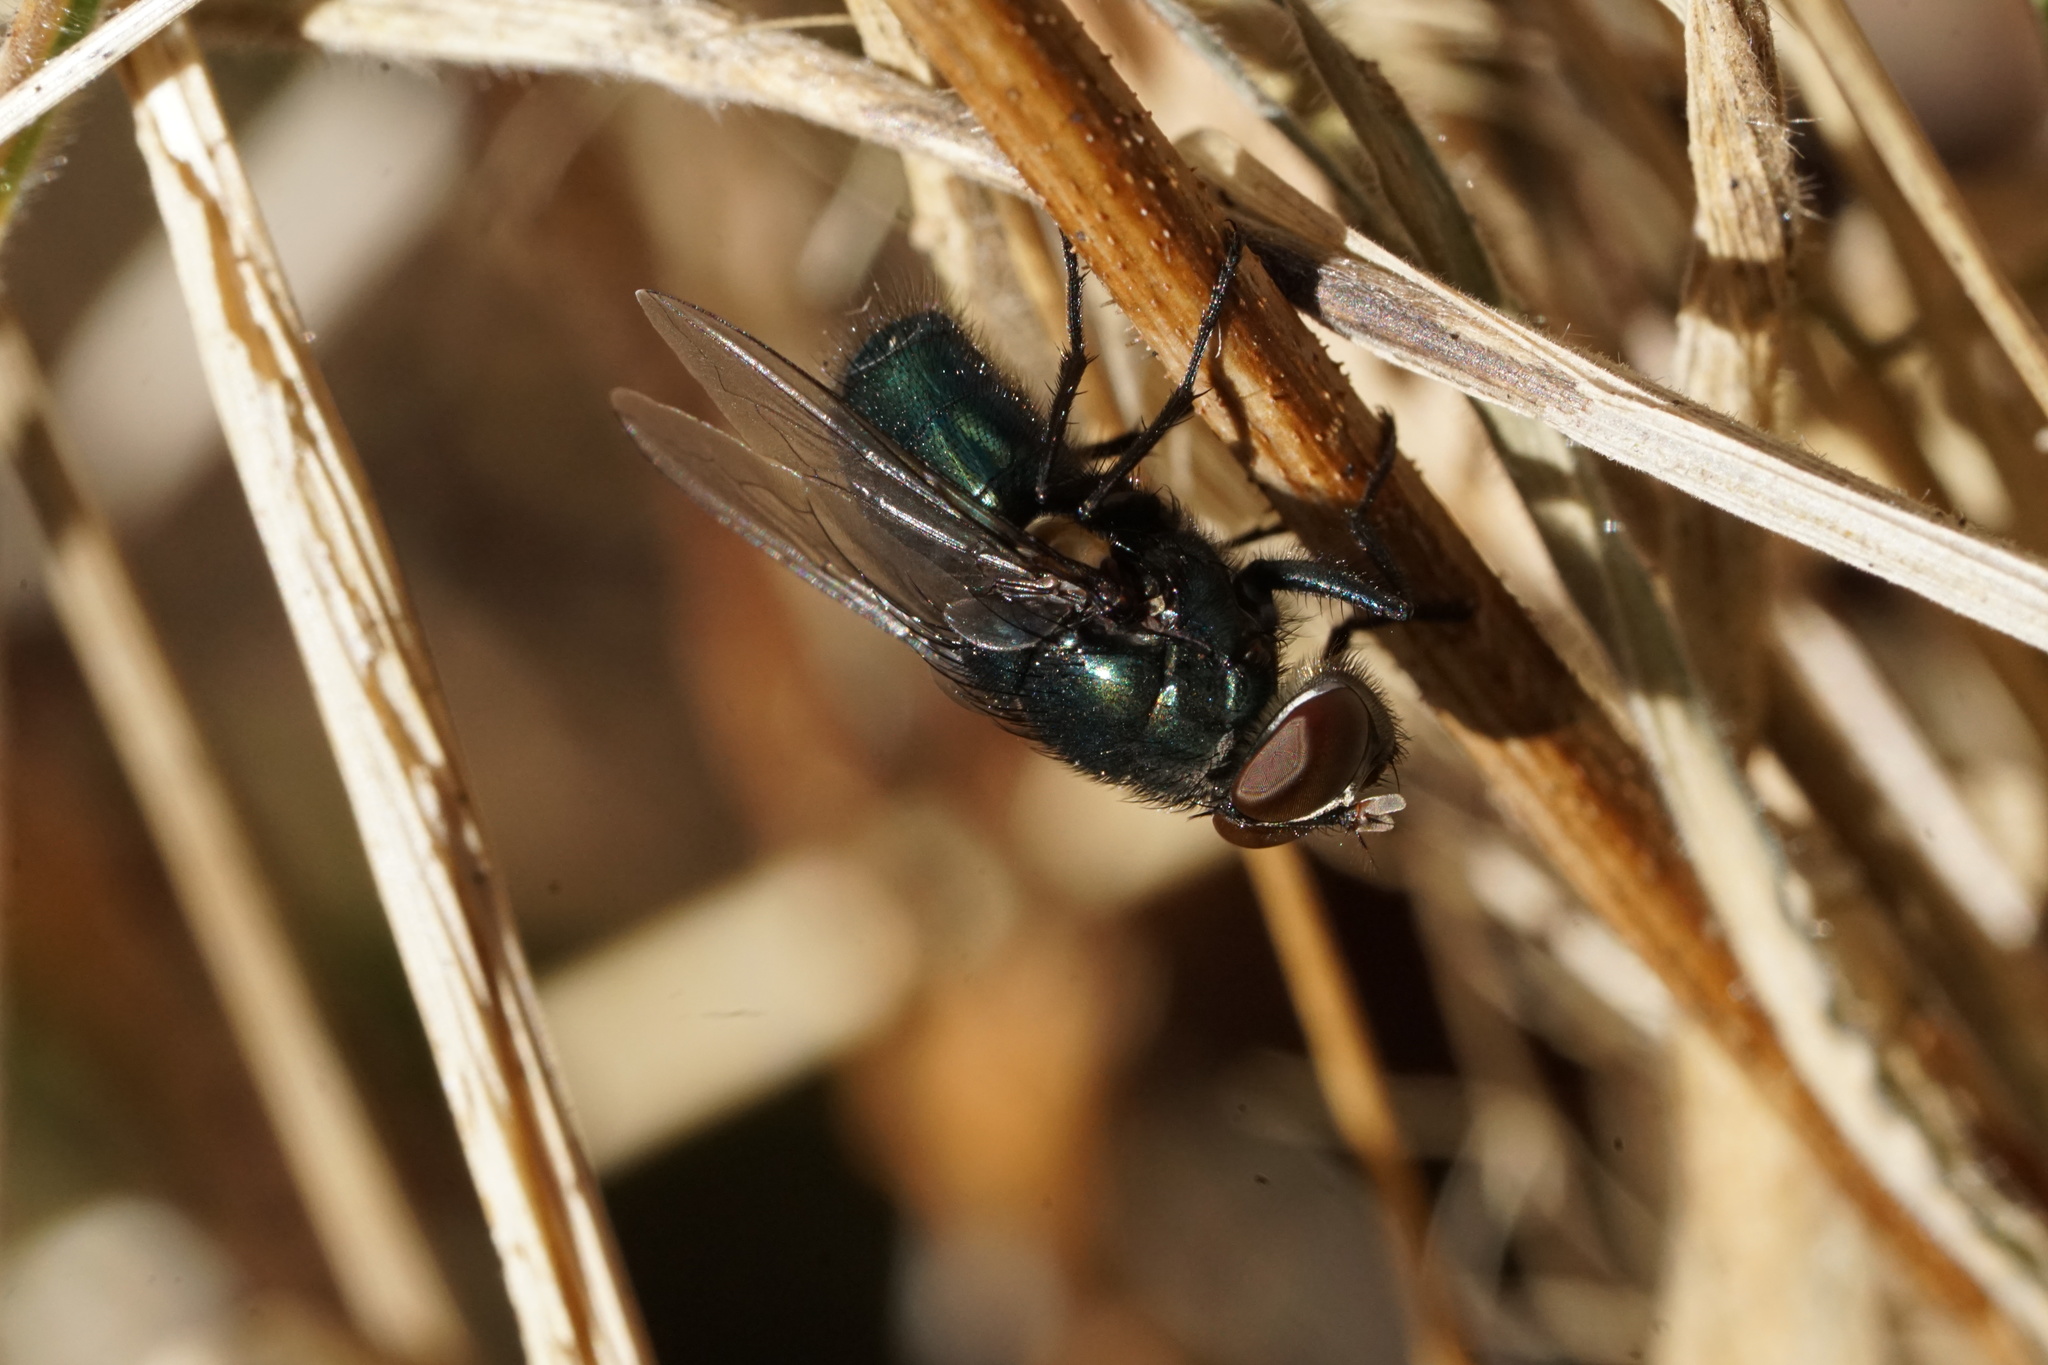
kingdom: Animalia
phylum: Arthropoda
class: Insecta
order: Diptera
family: Calliphoridae
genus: Phormia
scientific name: Phormia regina
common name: Black blow fly
